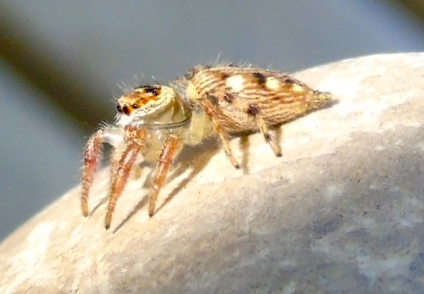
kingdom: Animalia
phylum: Arthropoda
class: Arachnida
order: Araneae
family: Salticidae
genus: Colonus
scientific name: Colonus
